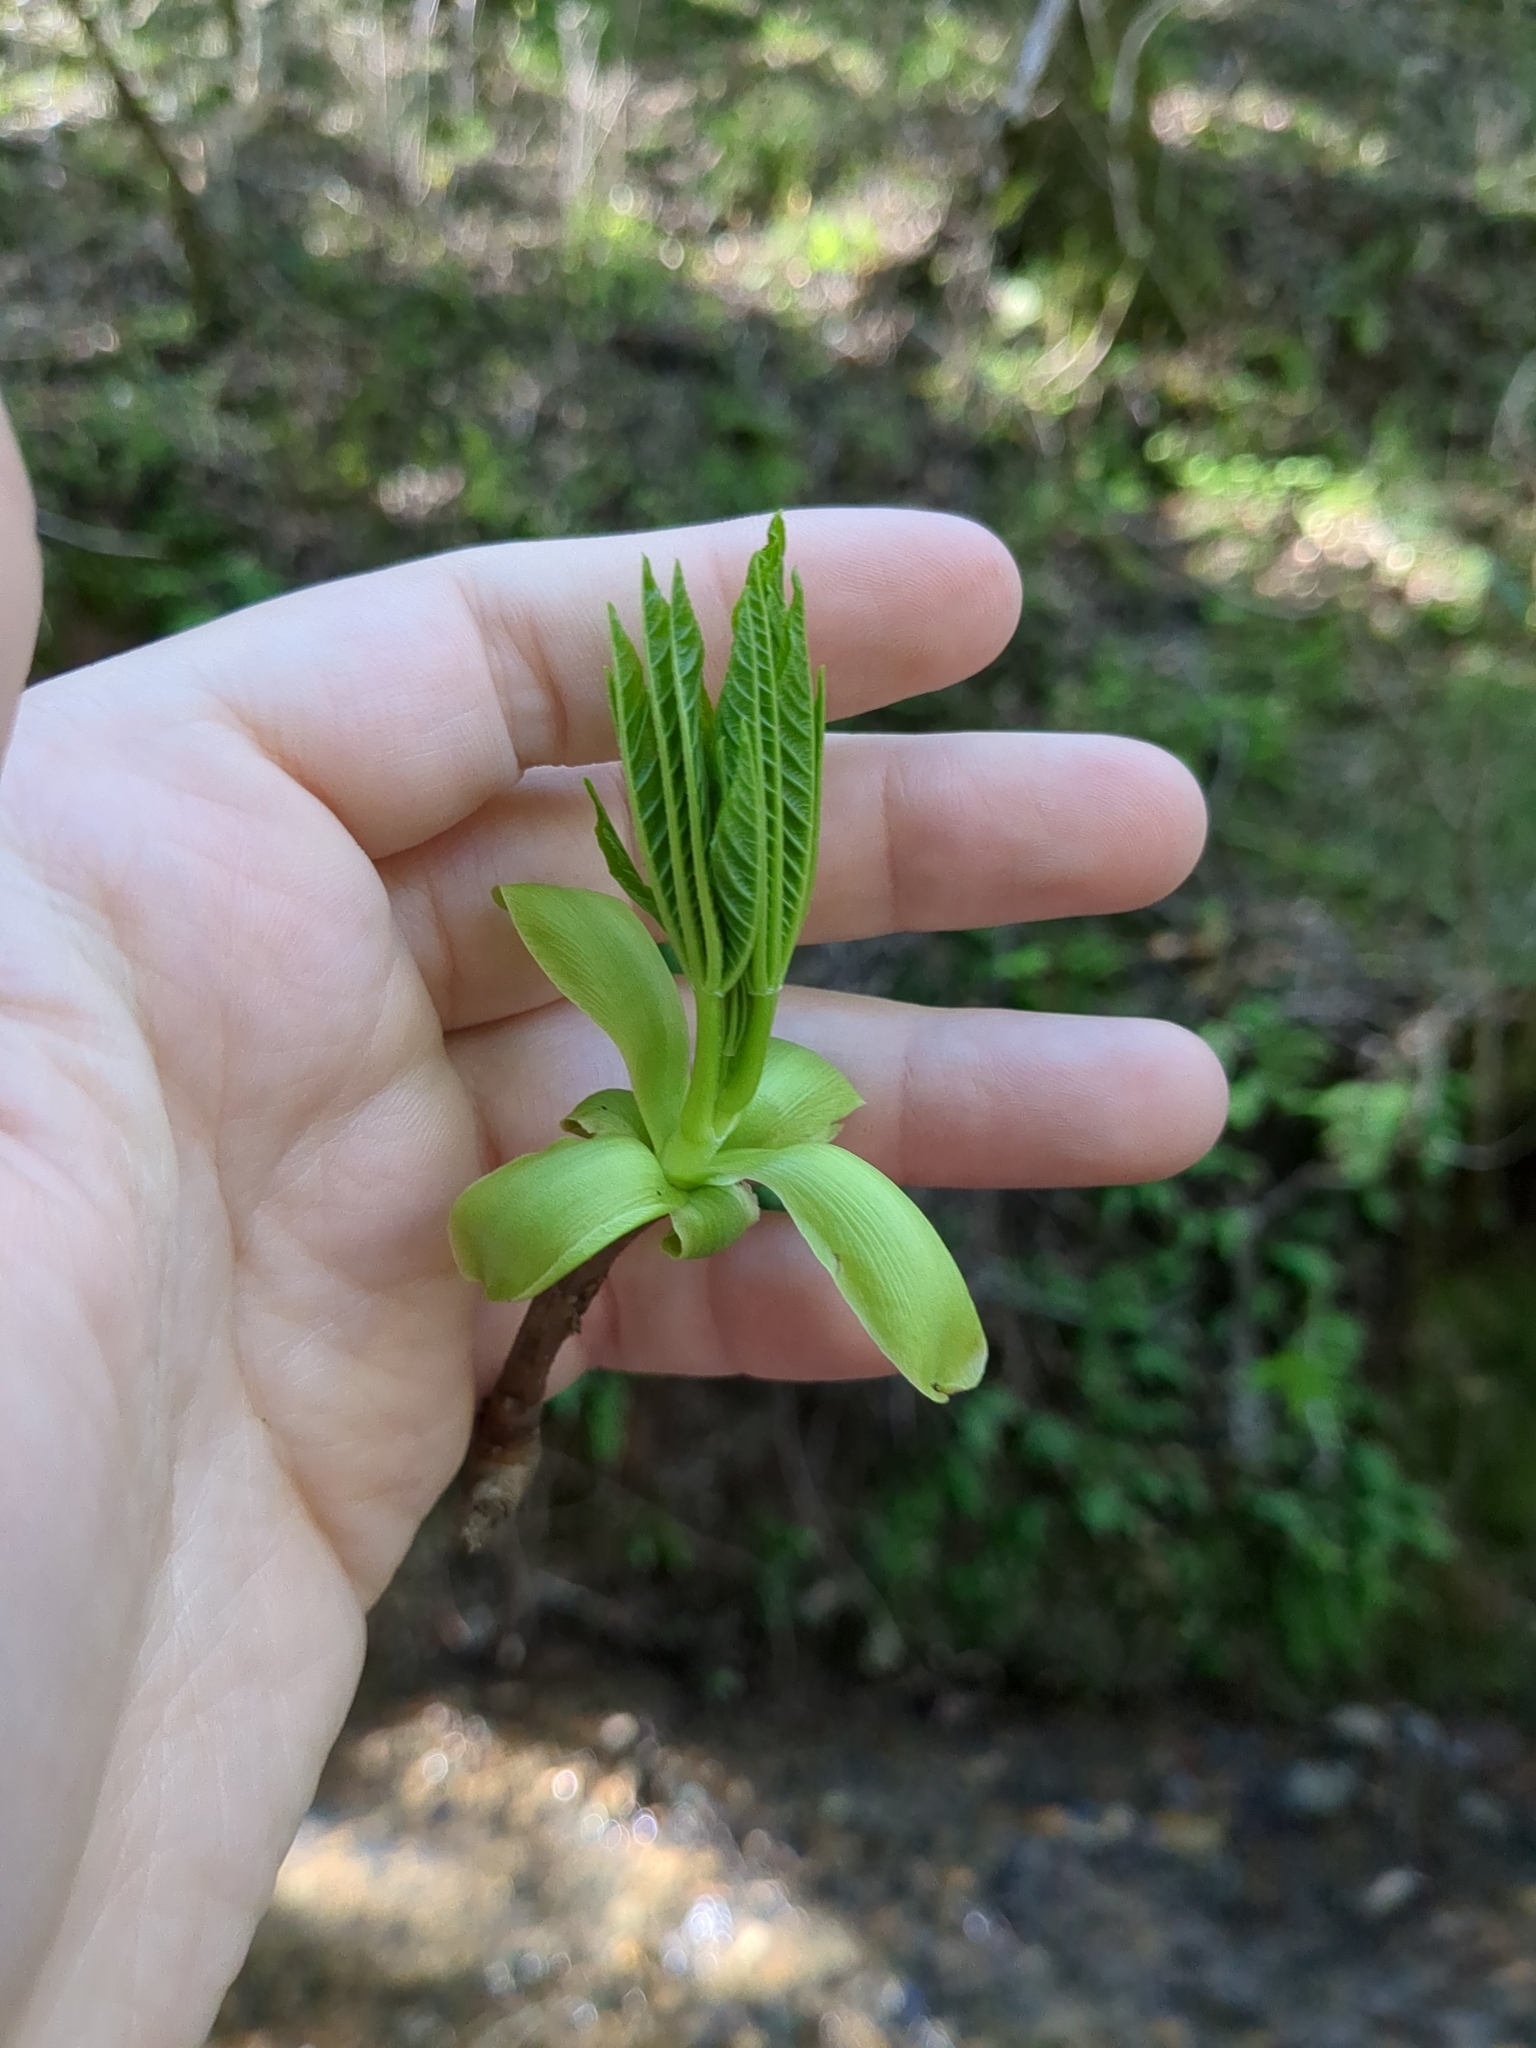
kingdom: Plantae
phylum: Tracheophyta
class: Magnoliopsida
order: Sapindales
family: Sapindaceae
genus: Aesculus
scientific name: Aesculus californica
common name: California buckeye
